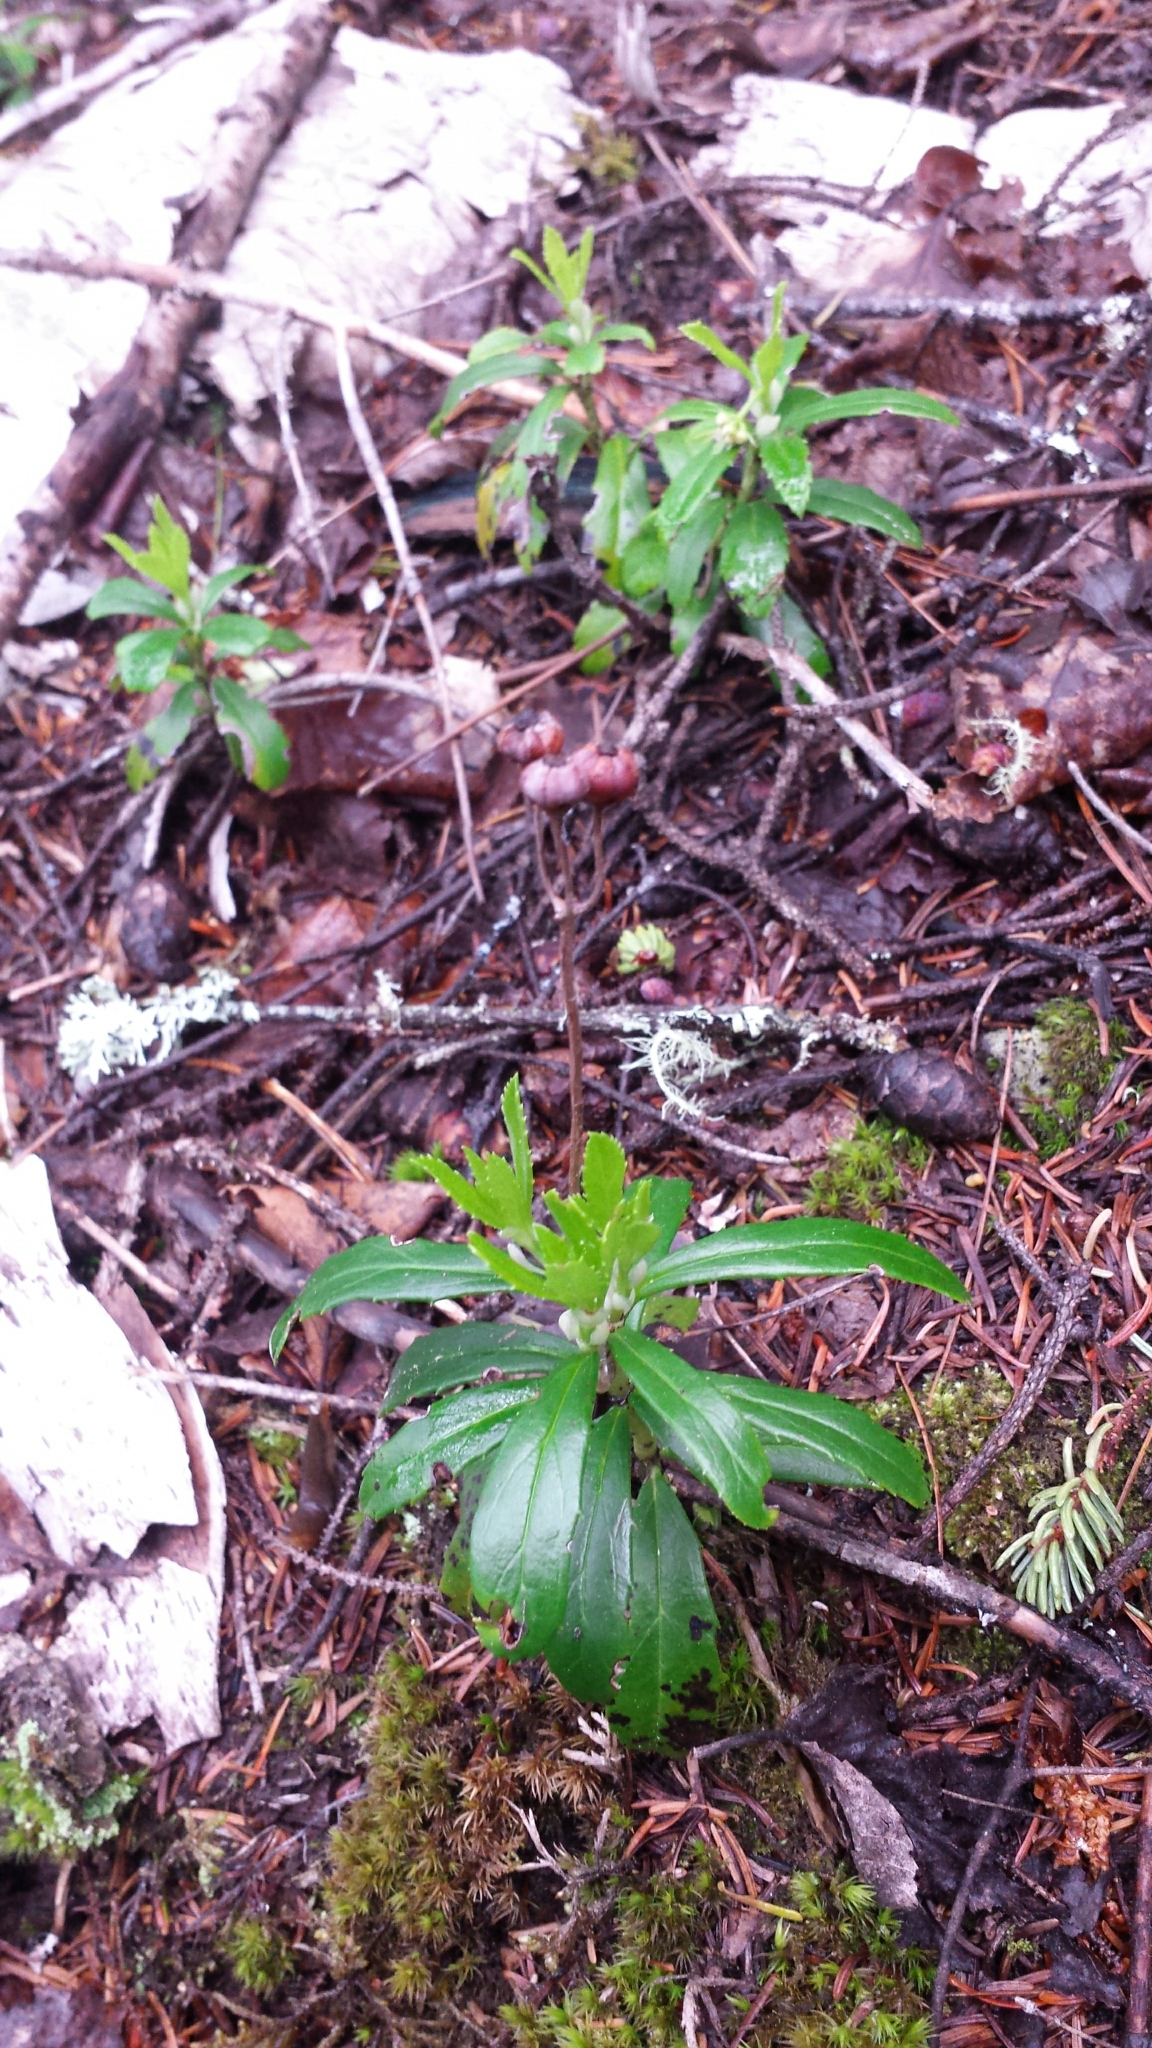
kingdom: Plantae
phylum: Tracheophyta
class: Magnoliopsida
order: Ericales
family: Ericaceae
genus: Chimaphila
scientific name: Chimaphila umbellata
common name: Pipsissewa
